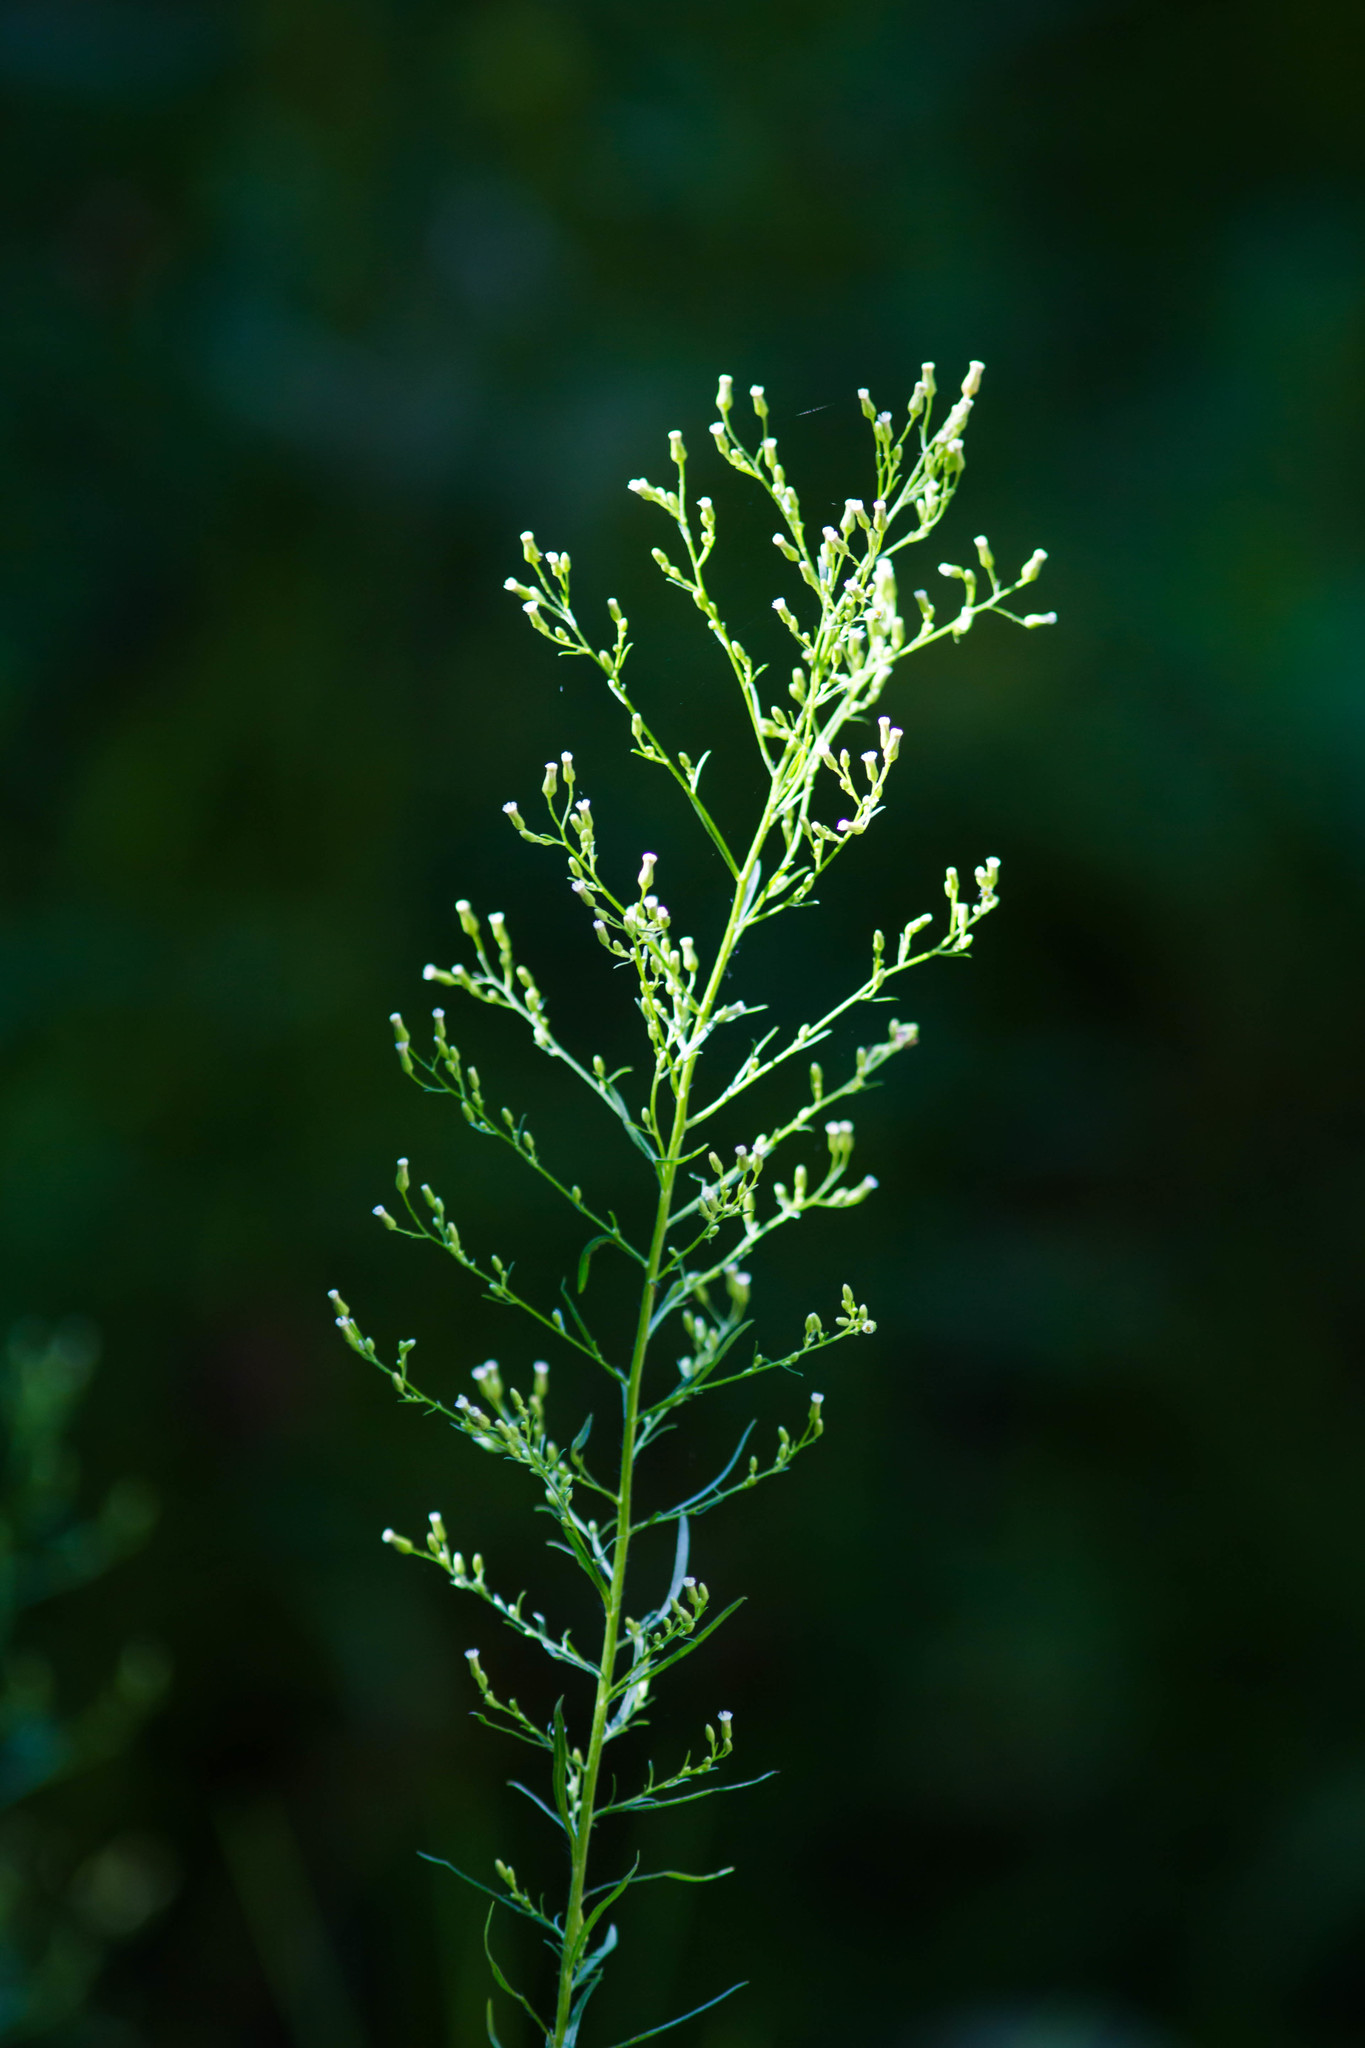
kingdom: Plantae
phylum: Tracheophyta
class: Magnoliopsida
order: Asterales
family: Asteraceae
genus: Erigeron
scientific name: Erigeron canadensis
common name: Canadian fleabane
